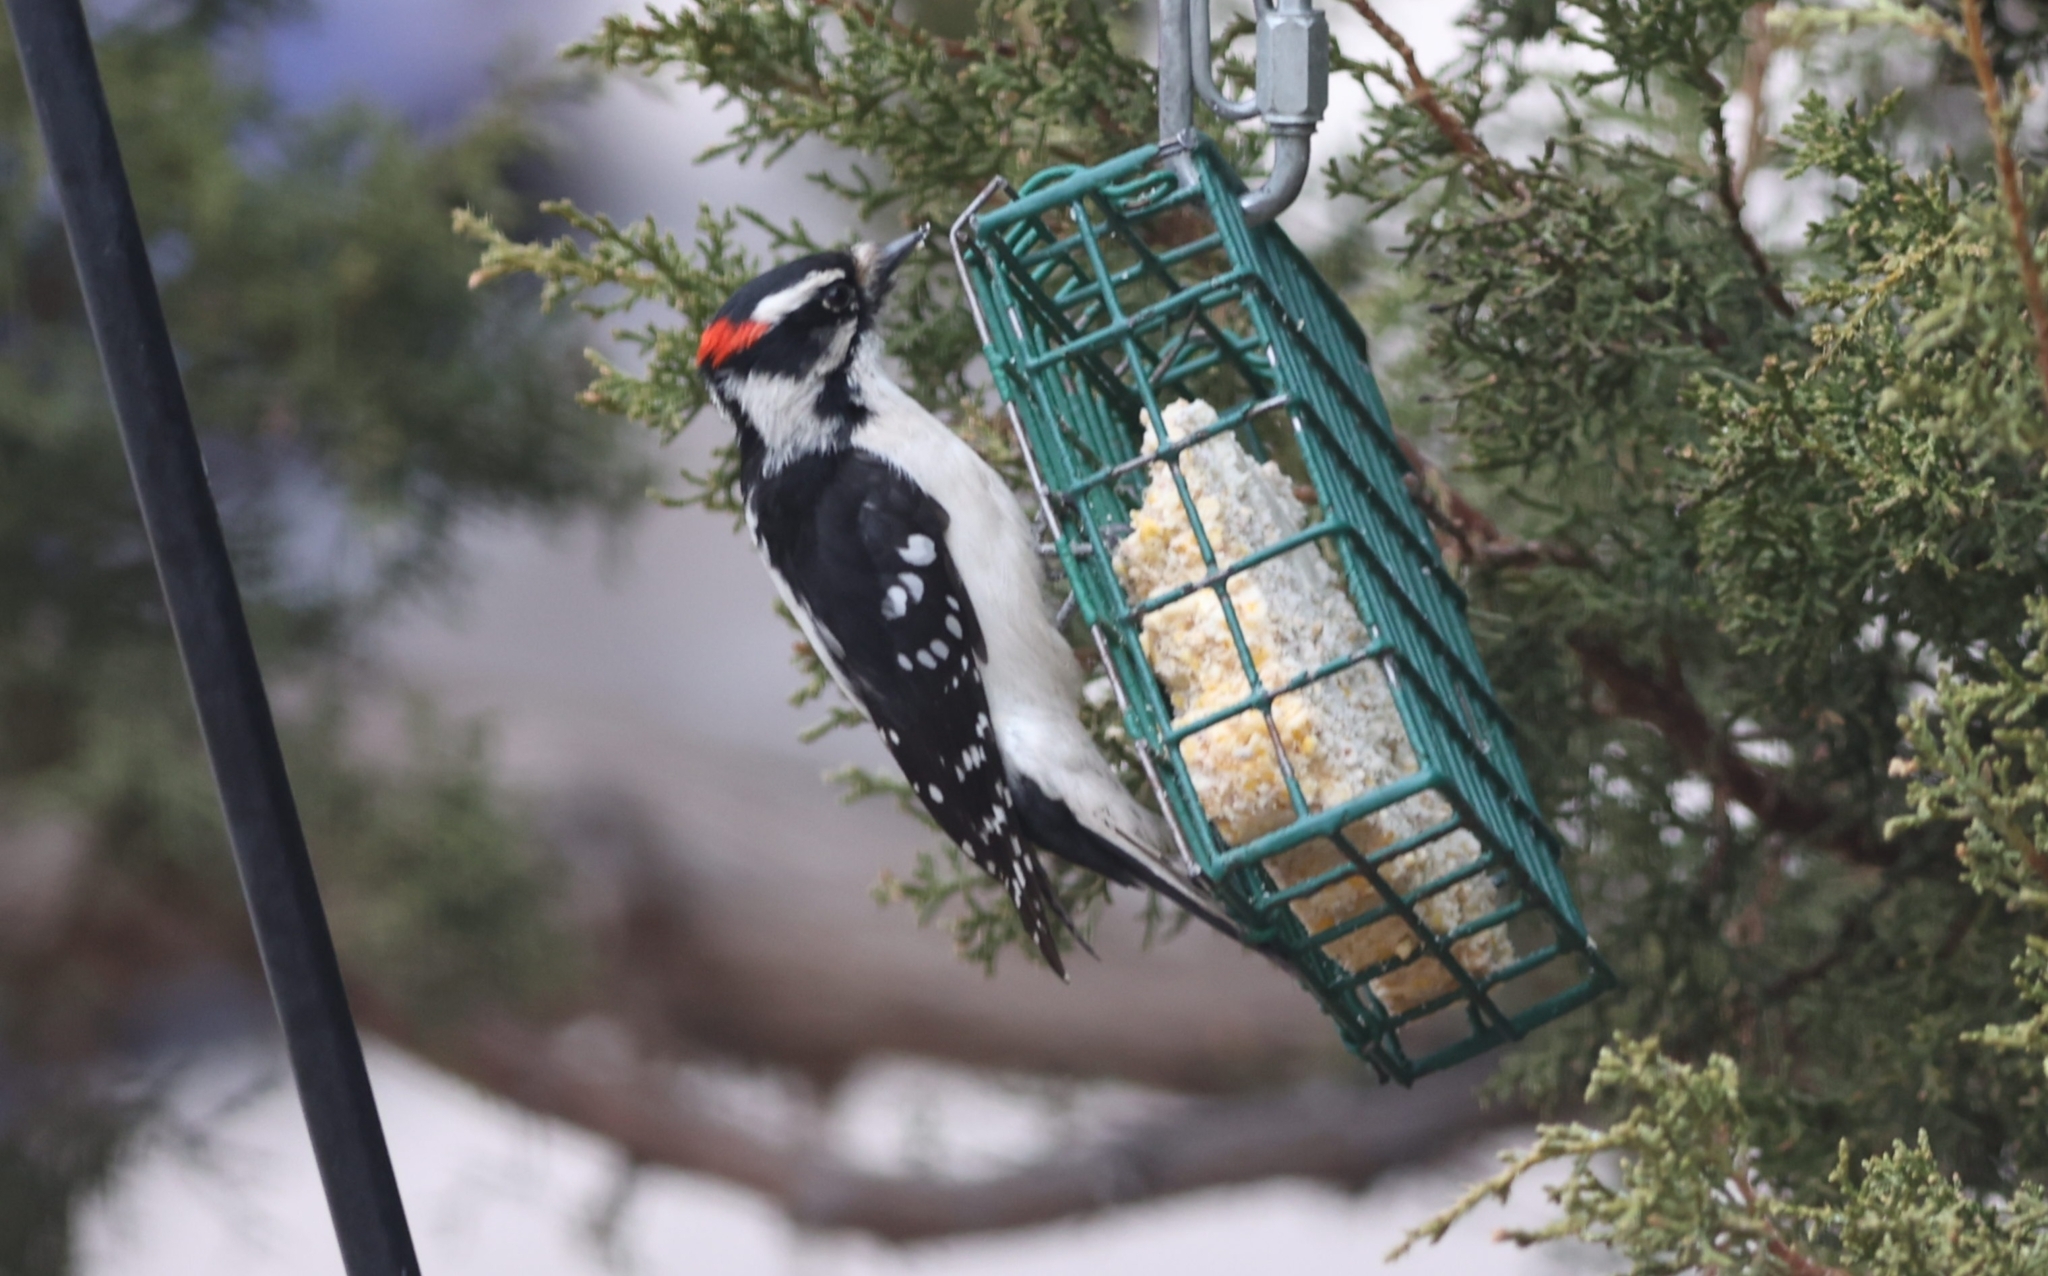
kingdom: Animalia
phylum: Chordata
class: Aves
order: Piciformes
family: Picidae
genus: Dryobates
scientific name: Dryobates pubescens
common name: Downy woodpecker
